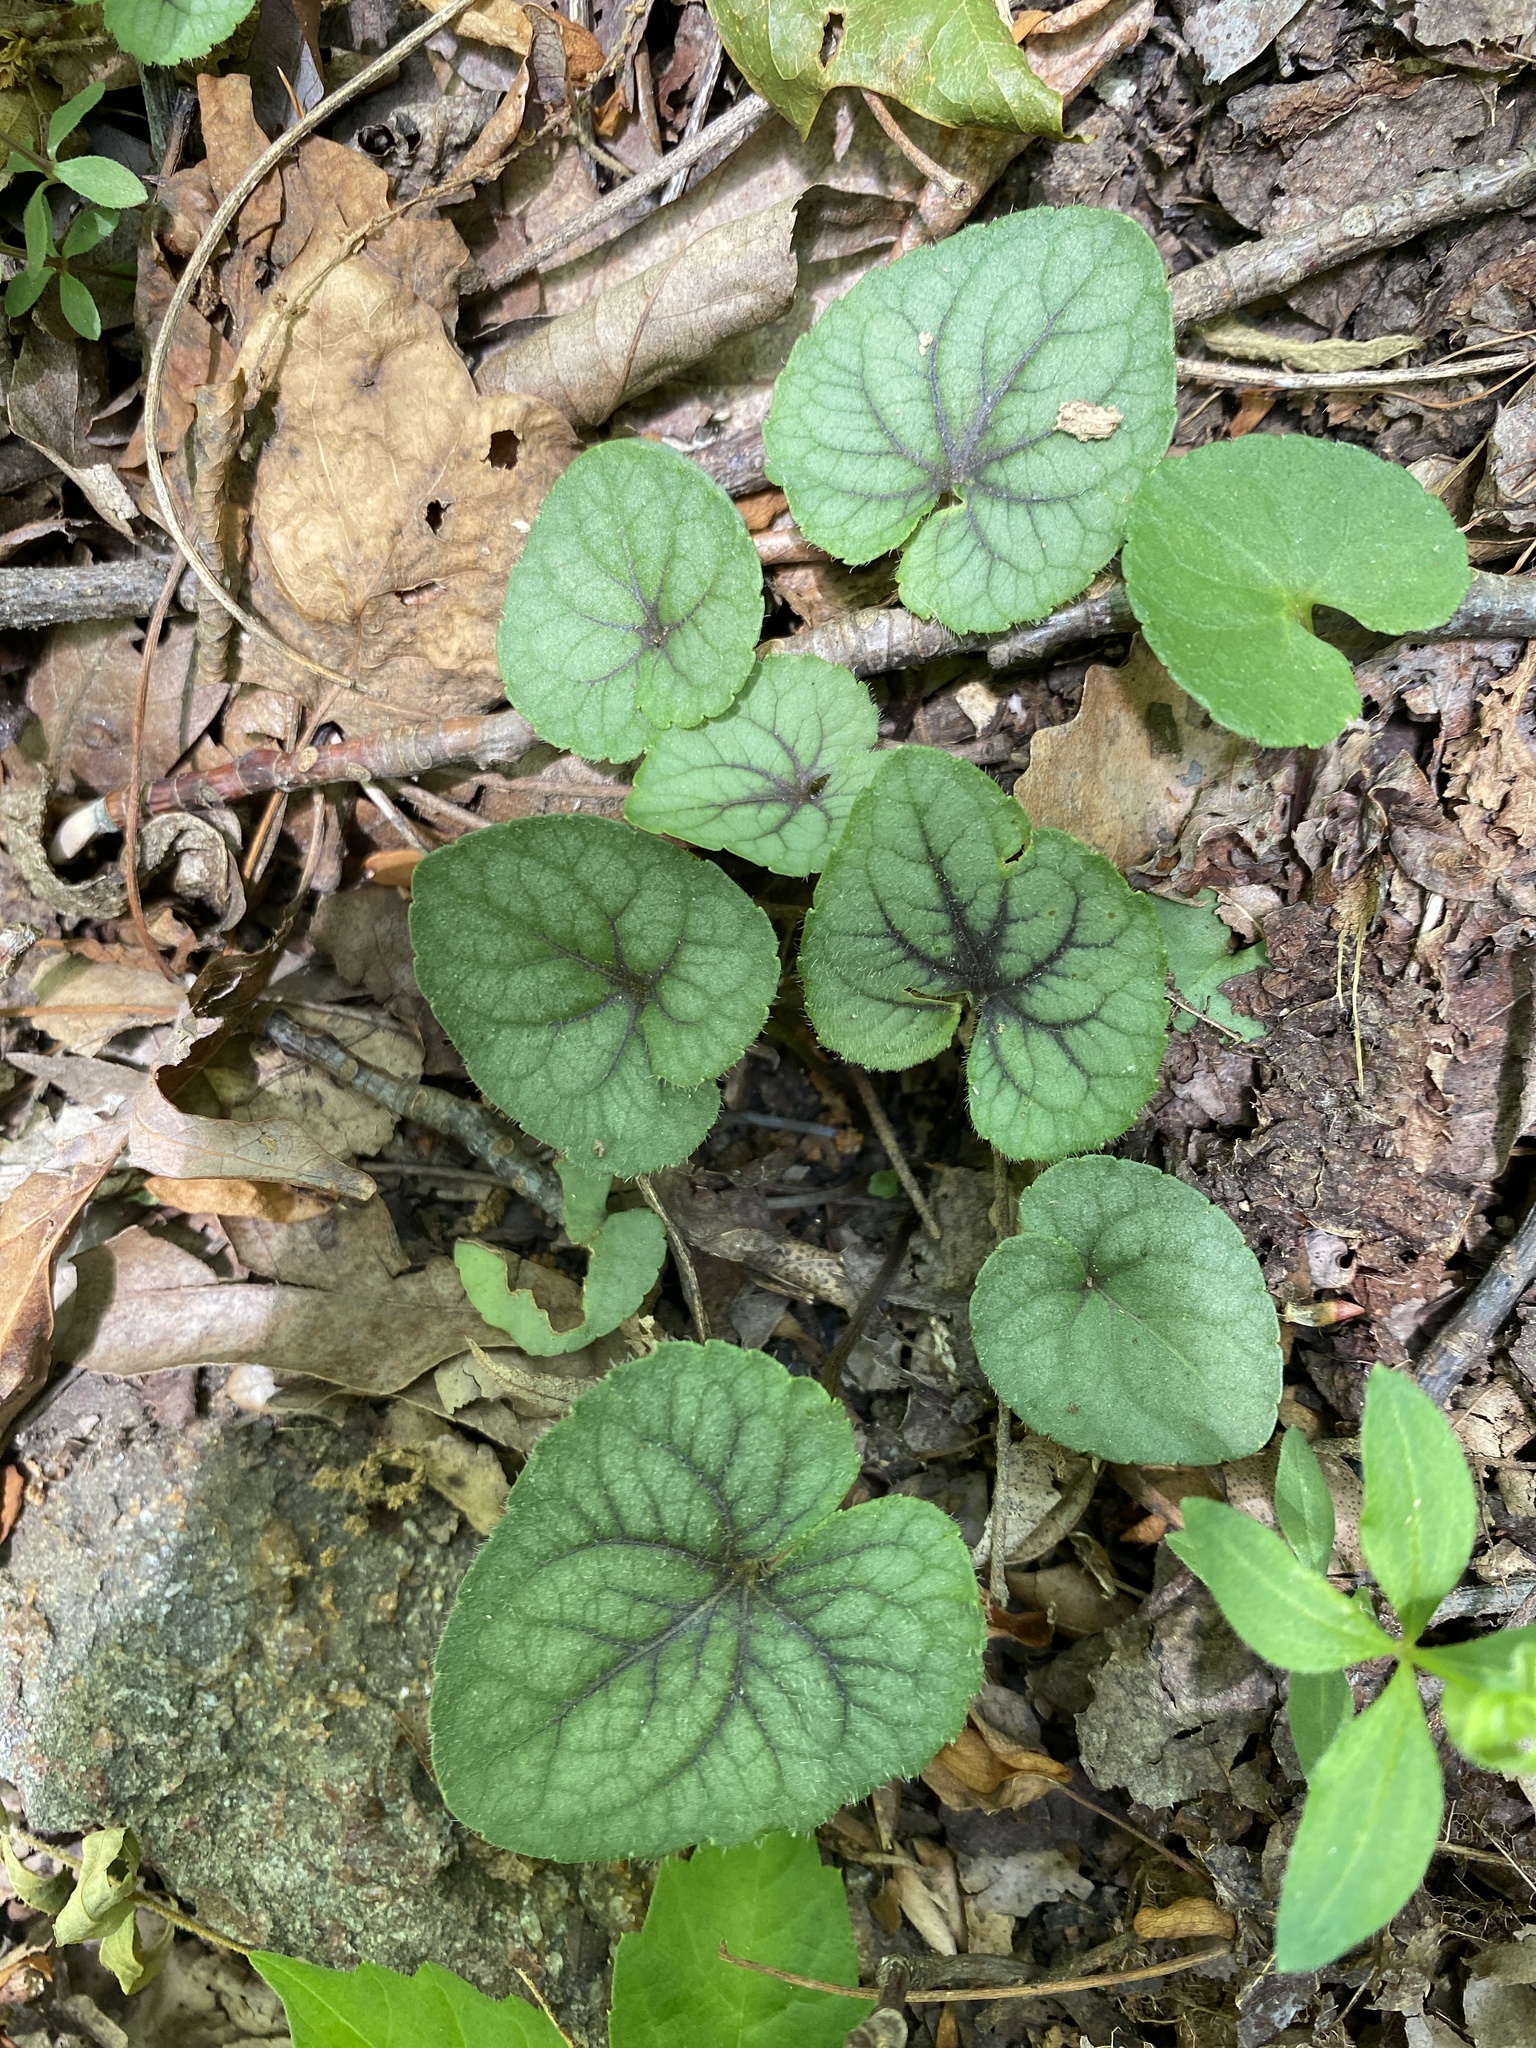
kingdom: Plantae
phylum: Tracheophyta
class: Magnoliopsida
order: Malpighiales
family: Violaceae
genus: Viola
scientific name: Viola hirsutula
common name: Southern wood violet
